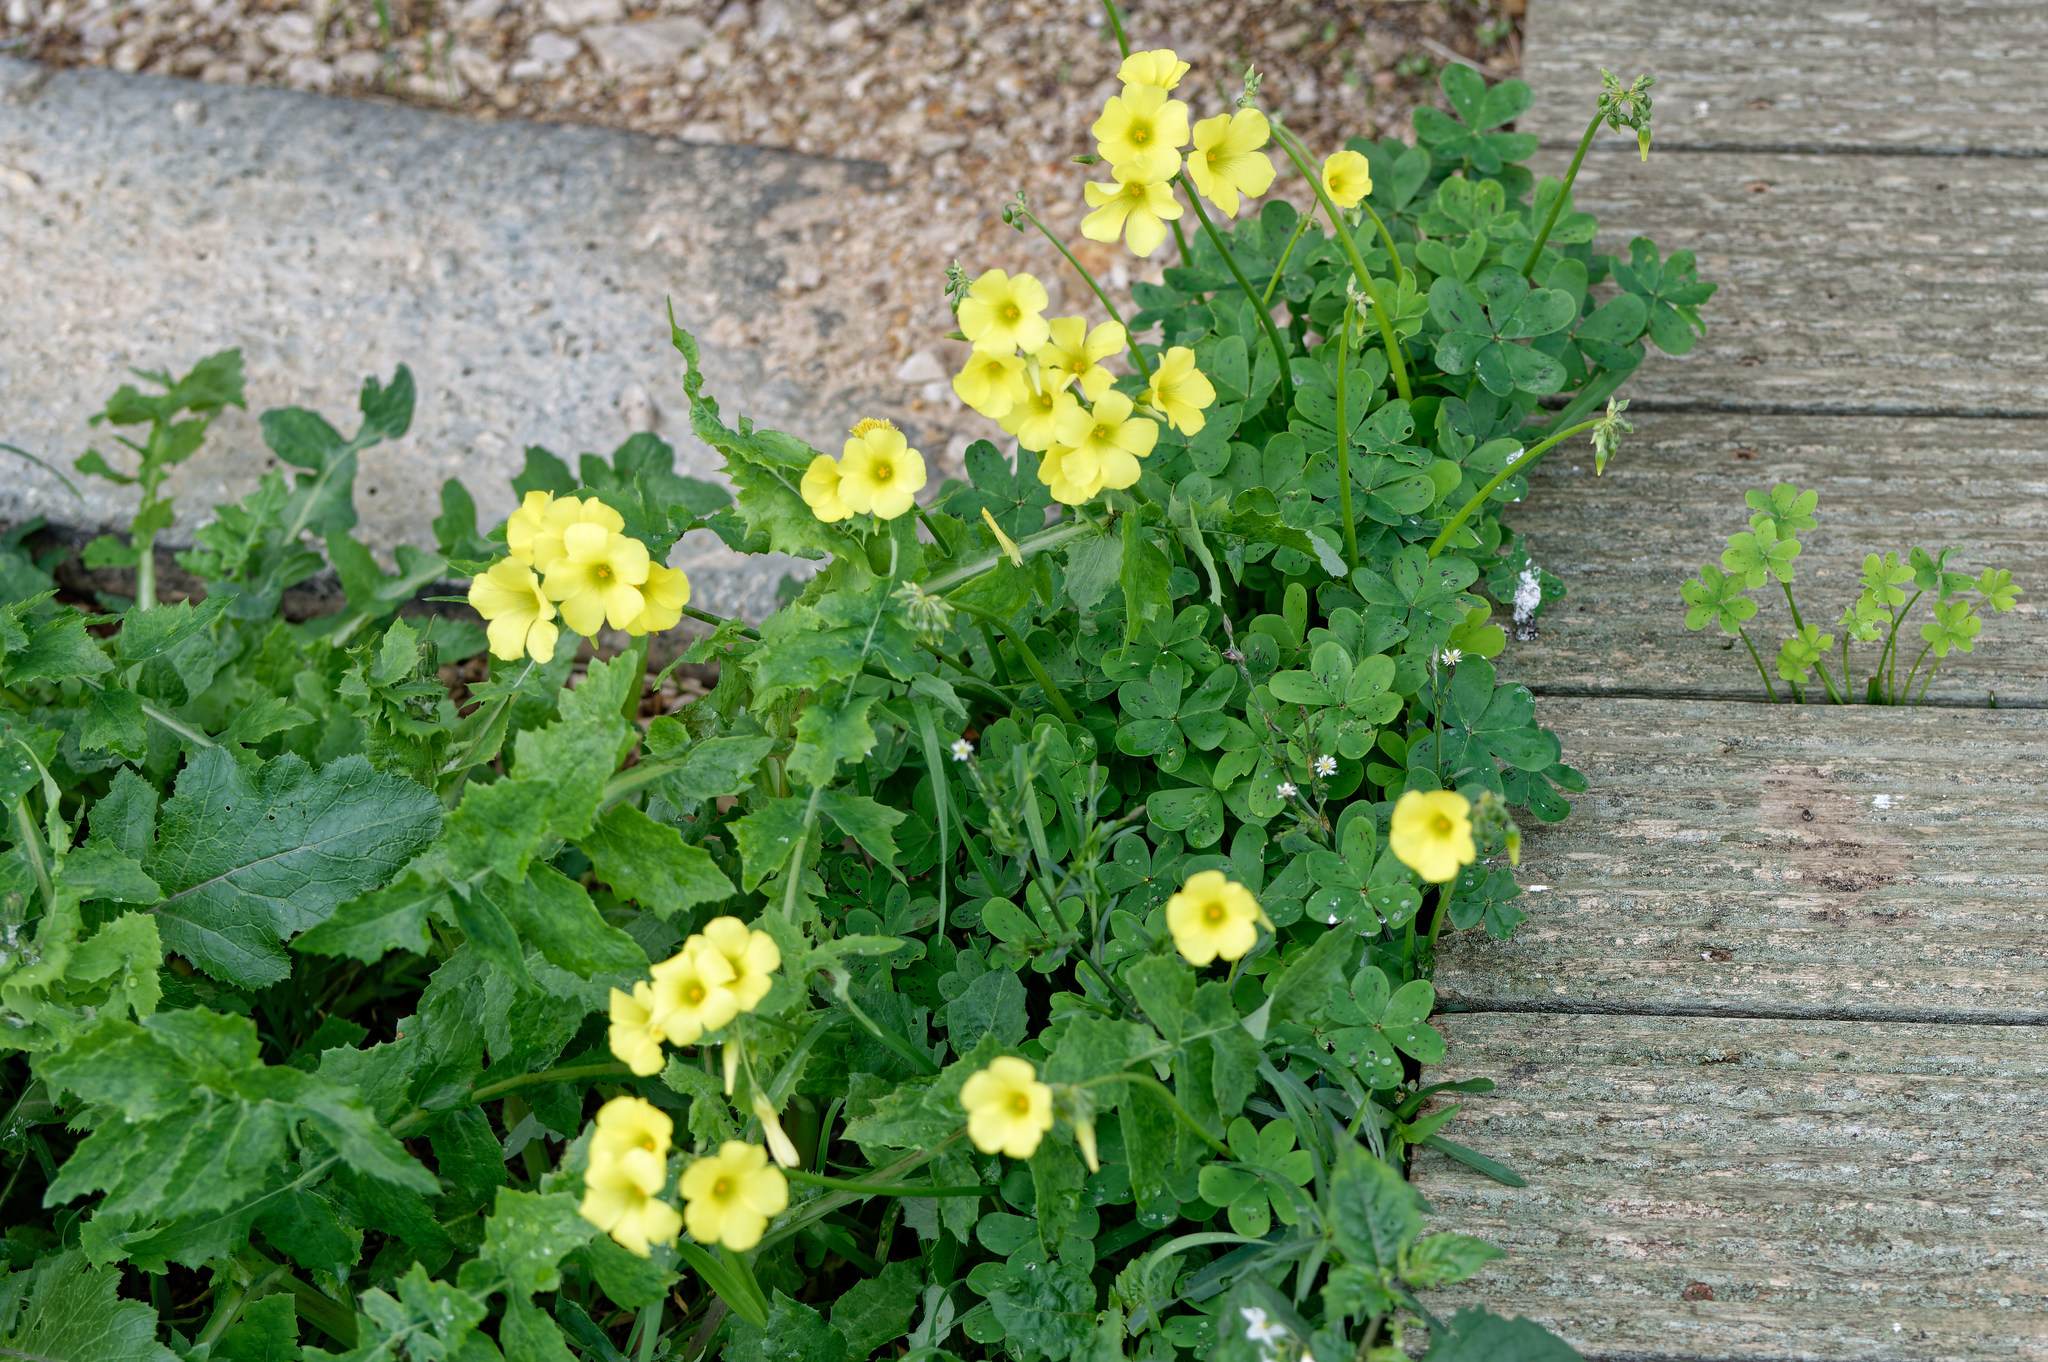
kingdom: Plantae
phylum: Tracheophyta
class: Magnoliopsida
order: Oxalidales
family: Oxalidaceae
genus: Oxalis
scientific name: Oxalis pes-caprae
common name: Bermuda-buttercup
